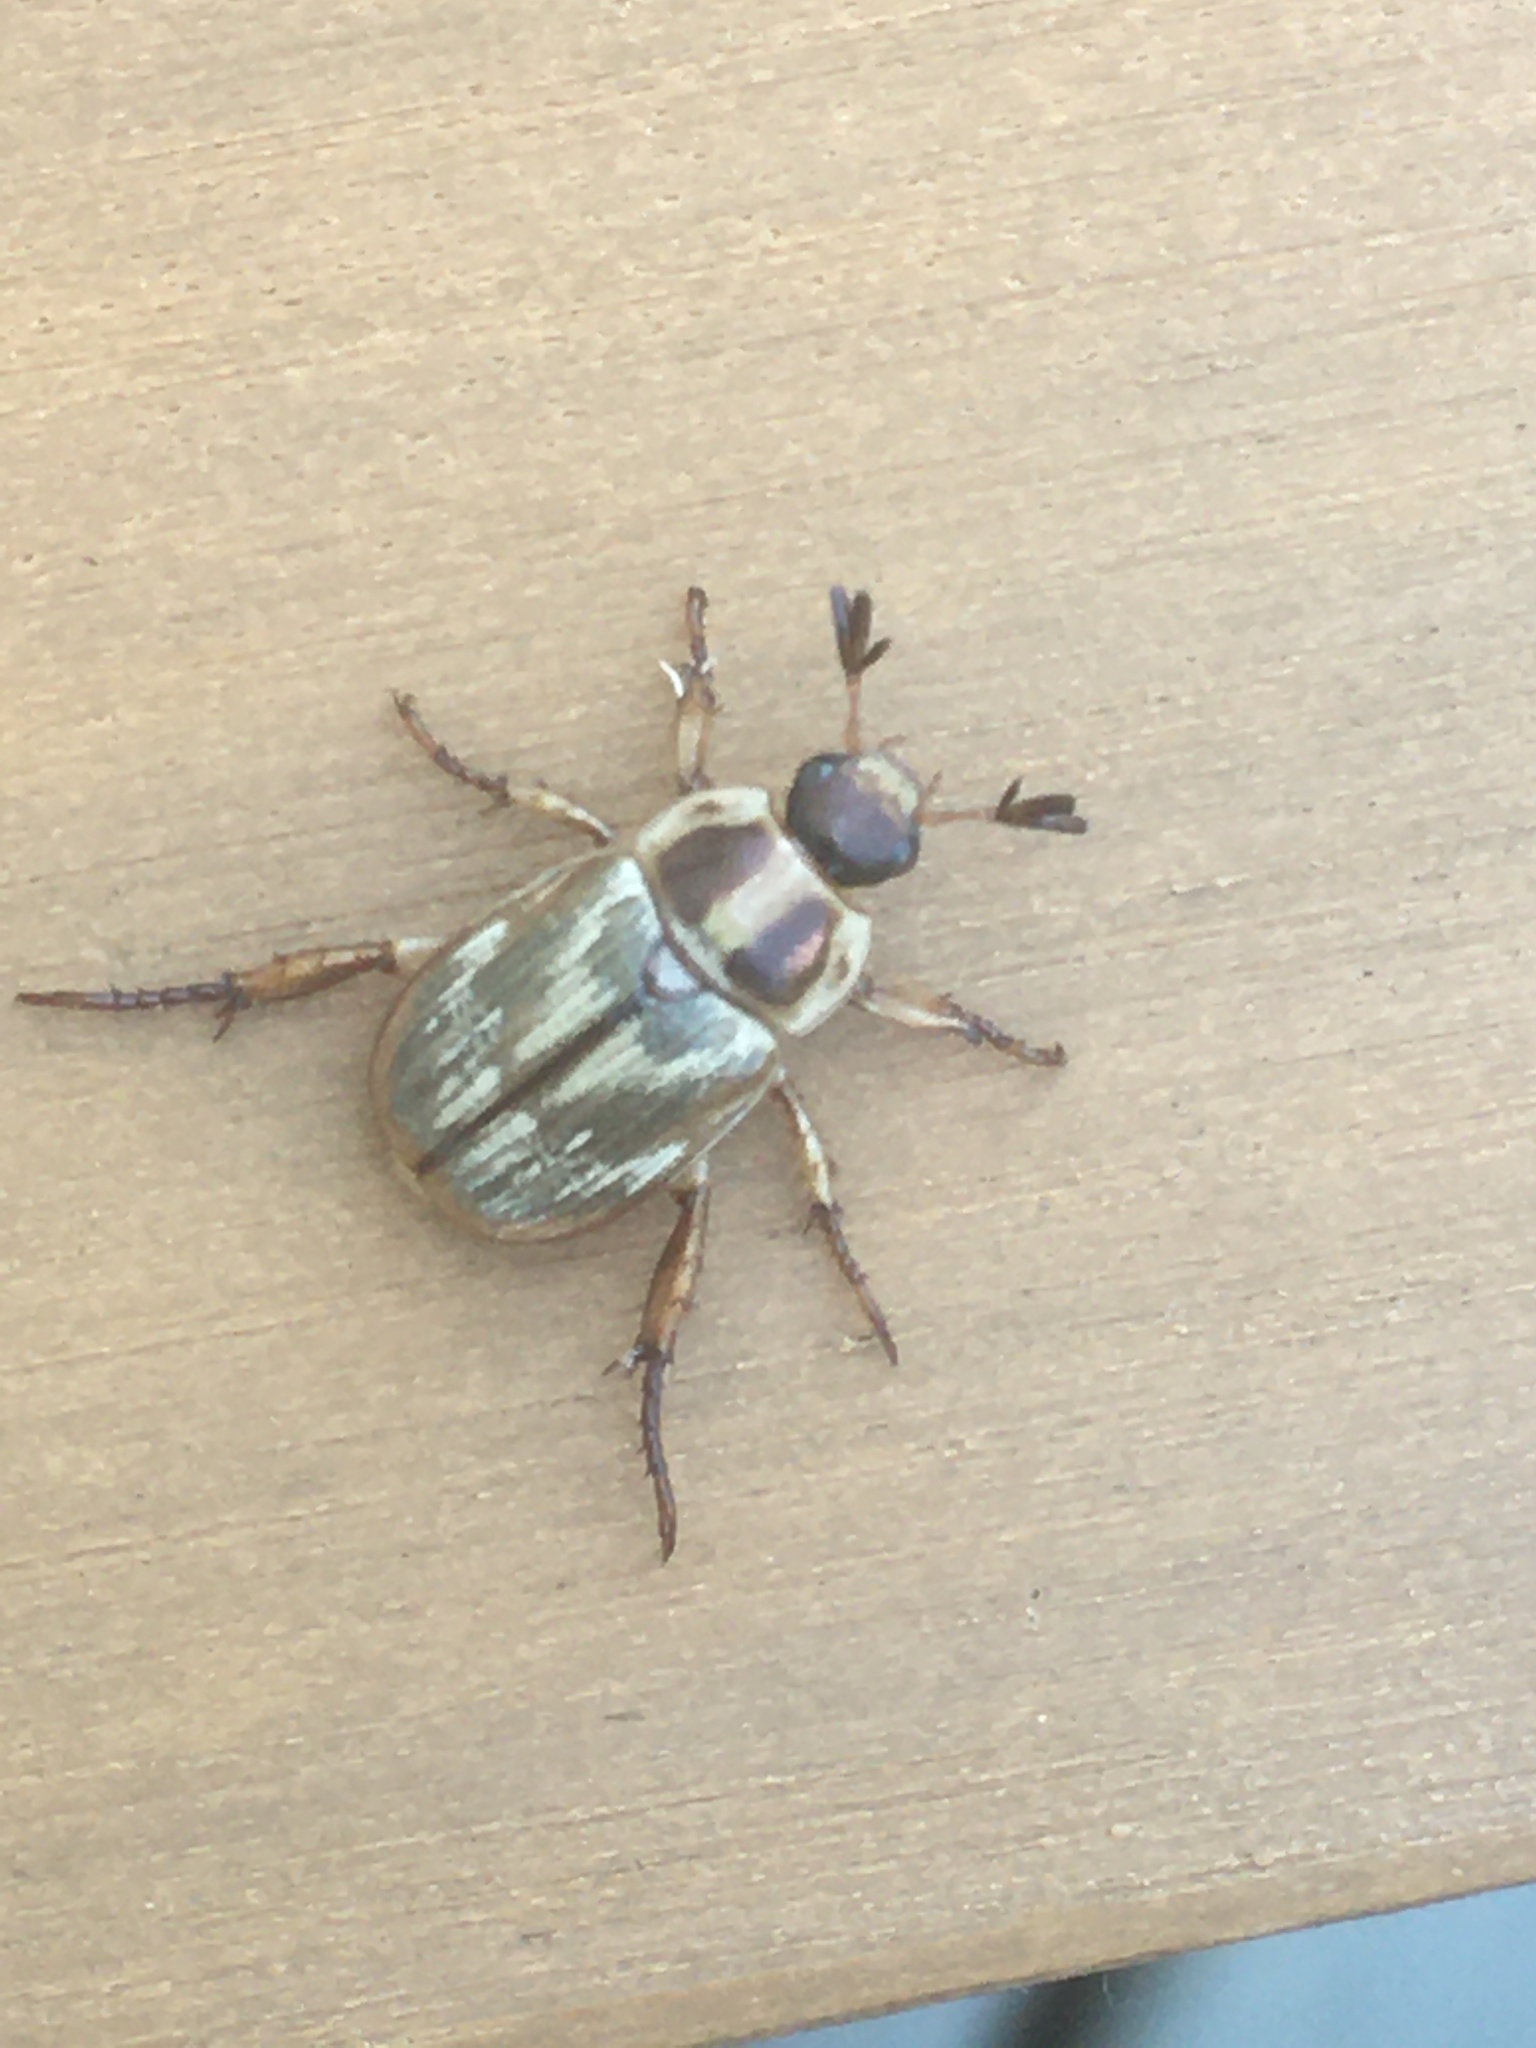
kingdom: Animalia
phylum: Arthropoda
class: Insecta
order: Coleoptera
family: Scarabaeidae
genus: Exomala
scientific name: Exomala orientalis
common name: Oriental beetle
